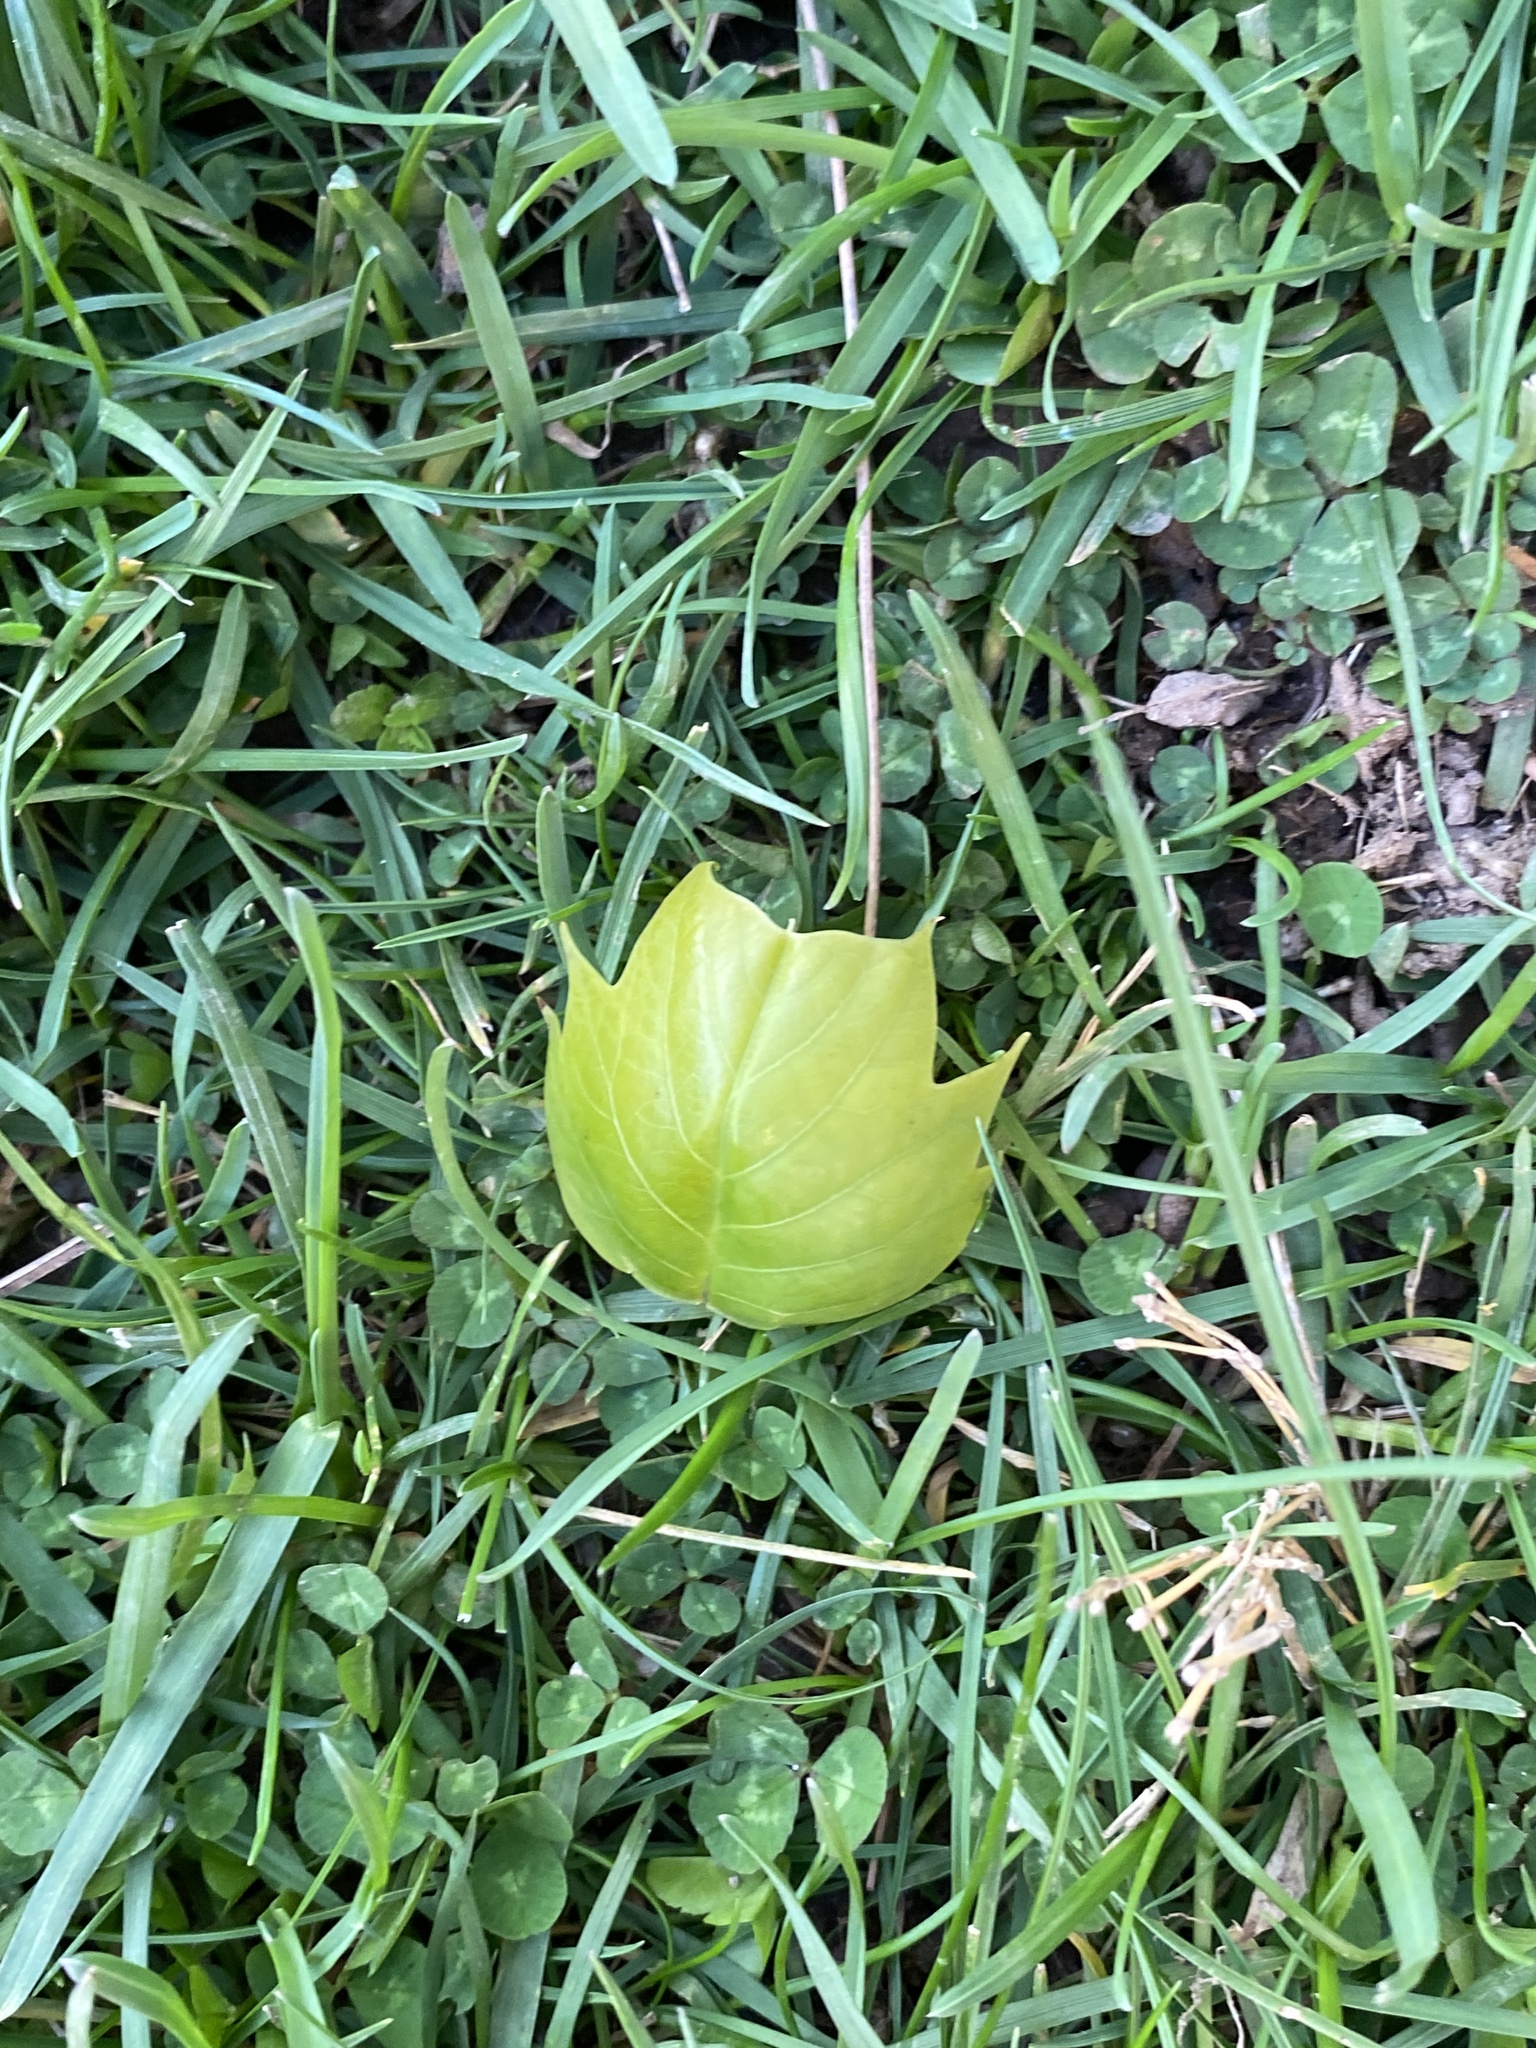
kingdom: Plantae
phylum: Tracheophyta
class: Magnoliopsida
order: Magnoliales
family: Magnoliaceae
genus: Liriodendron
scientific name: Liriodendron tulipifera
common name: Tulip tree
